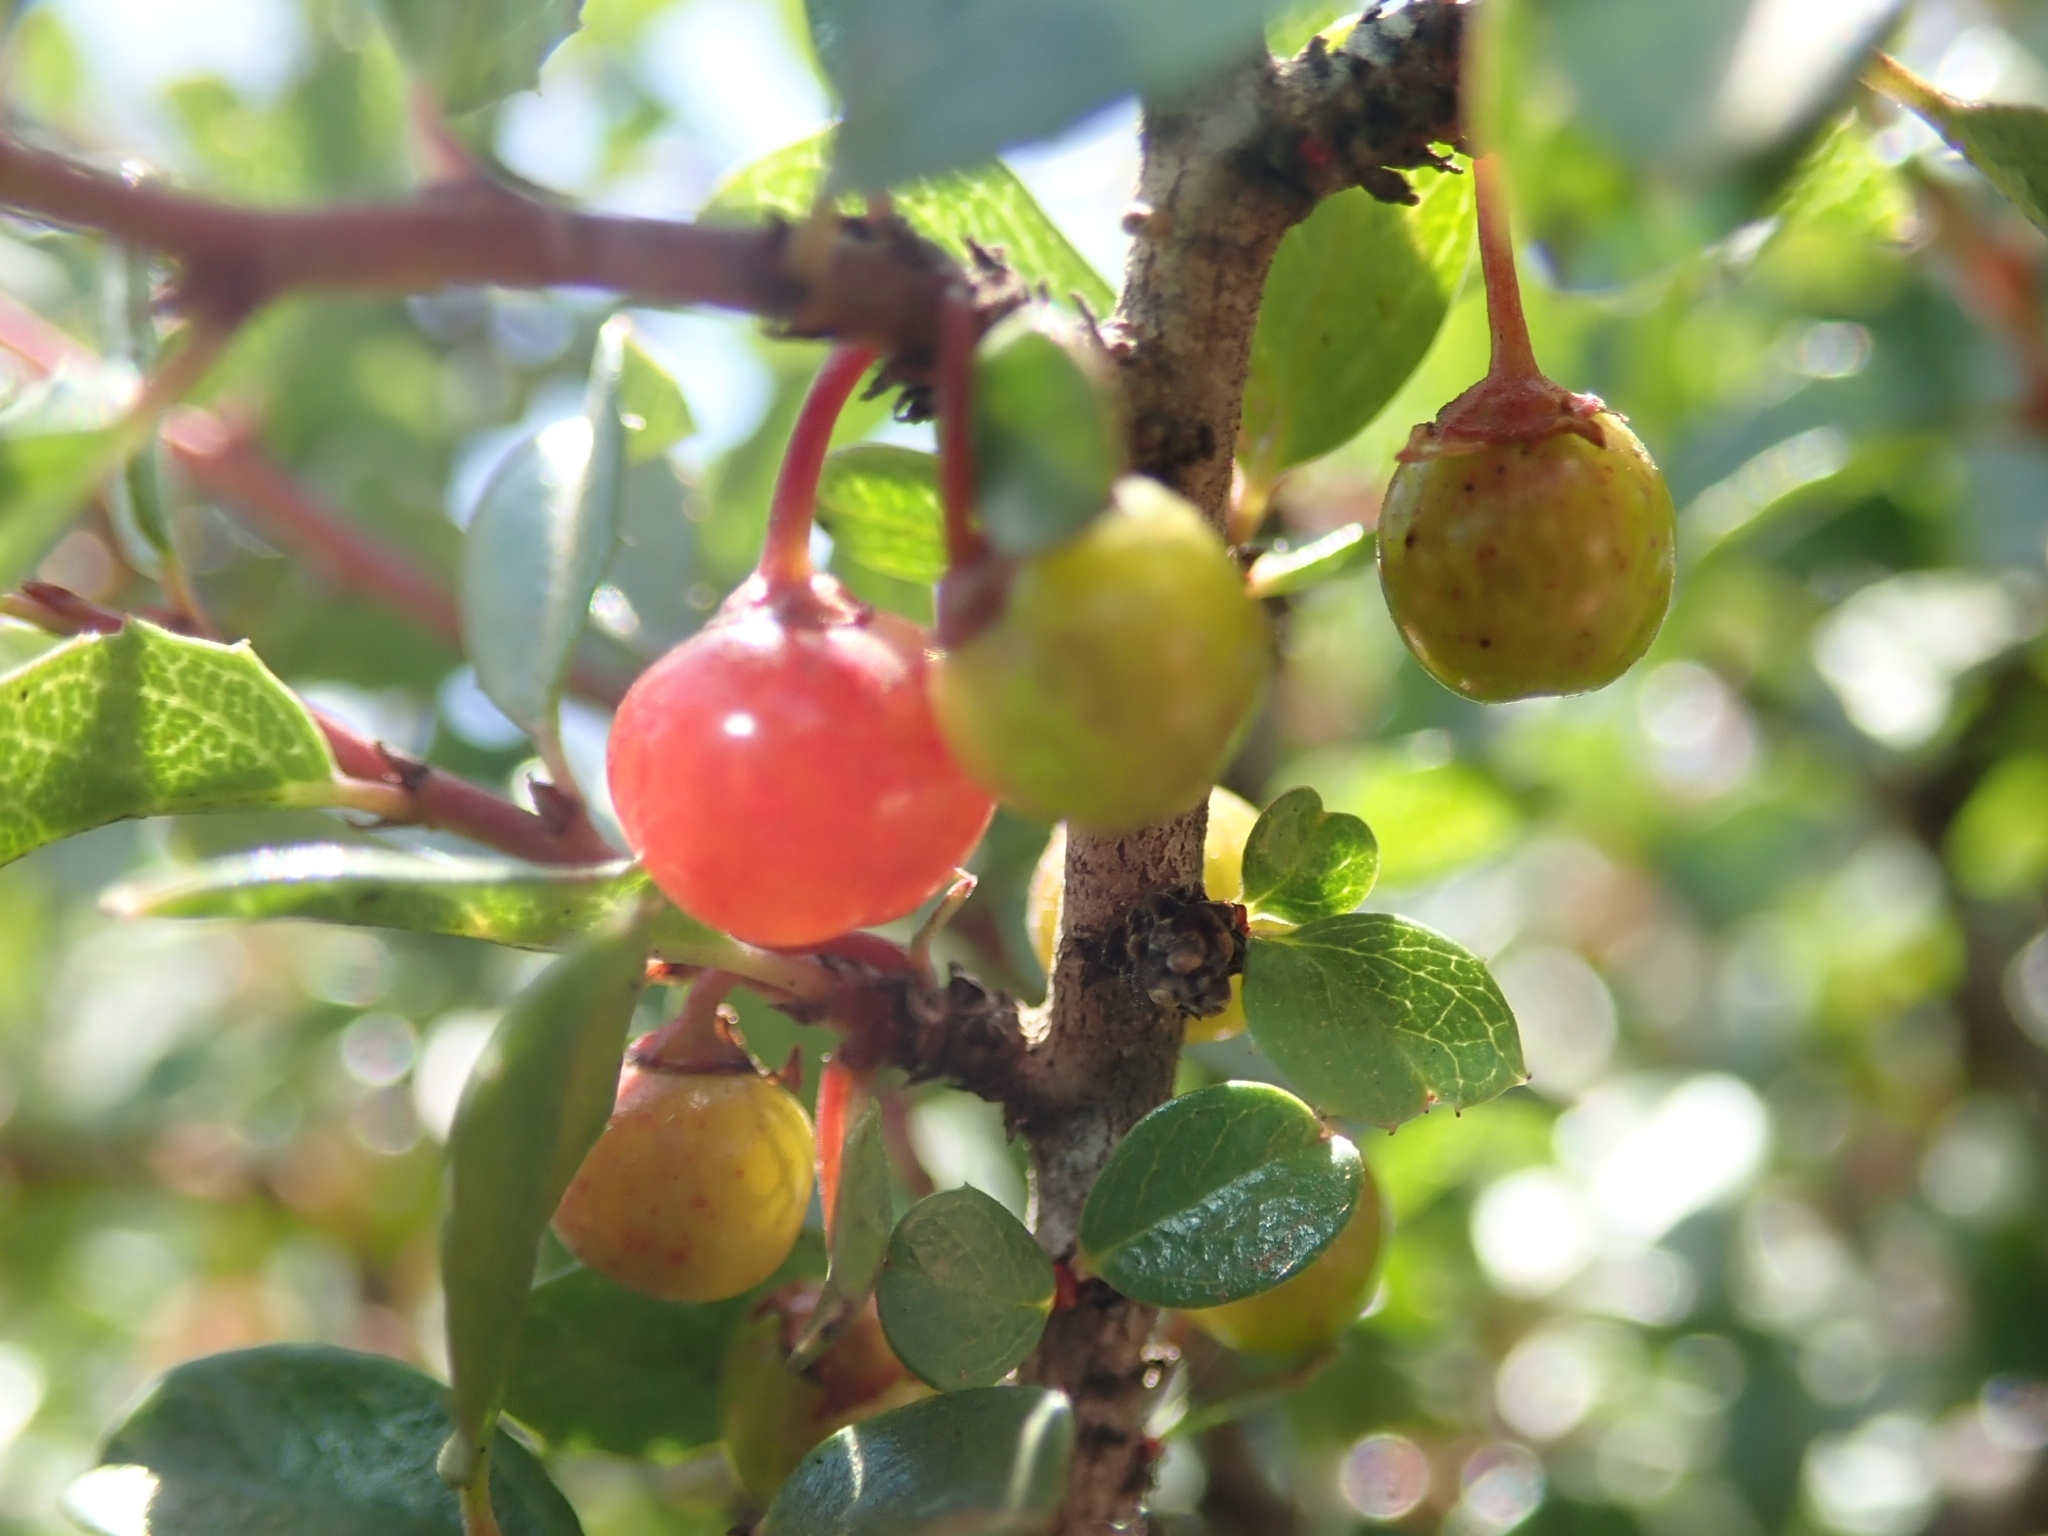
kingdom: Plantae
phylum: Tracheophyta
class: Magnoliopsida
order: Rosales
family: Rhamnaceae
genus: Endotropis
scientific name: Endotropis crocea
